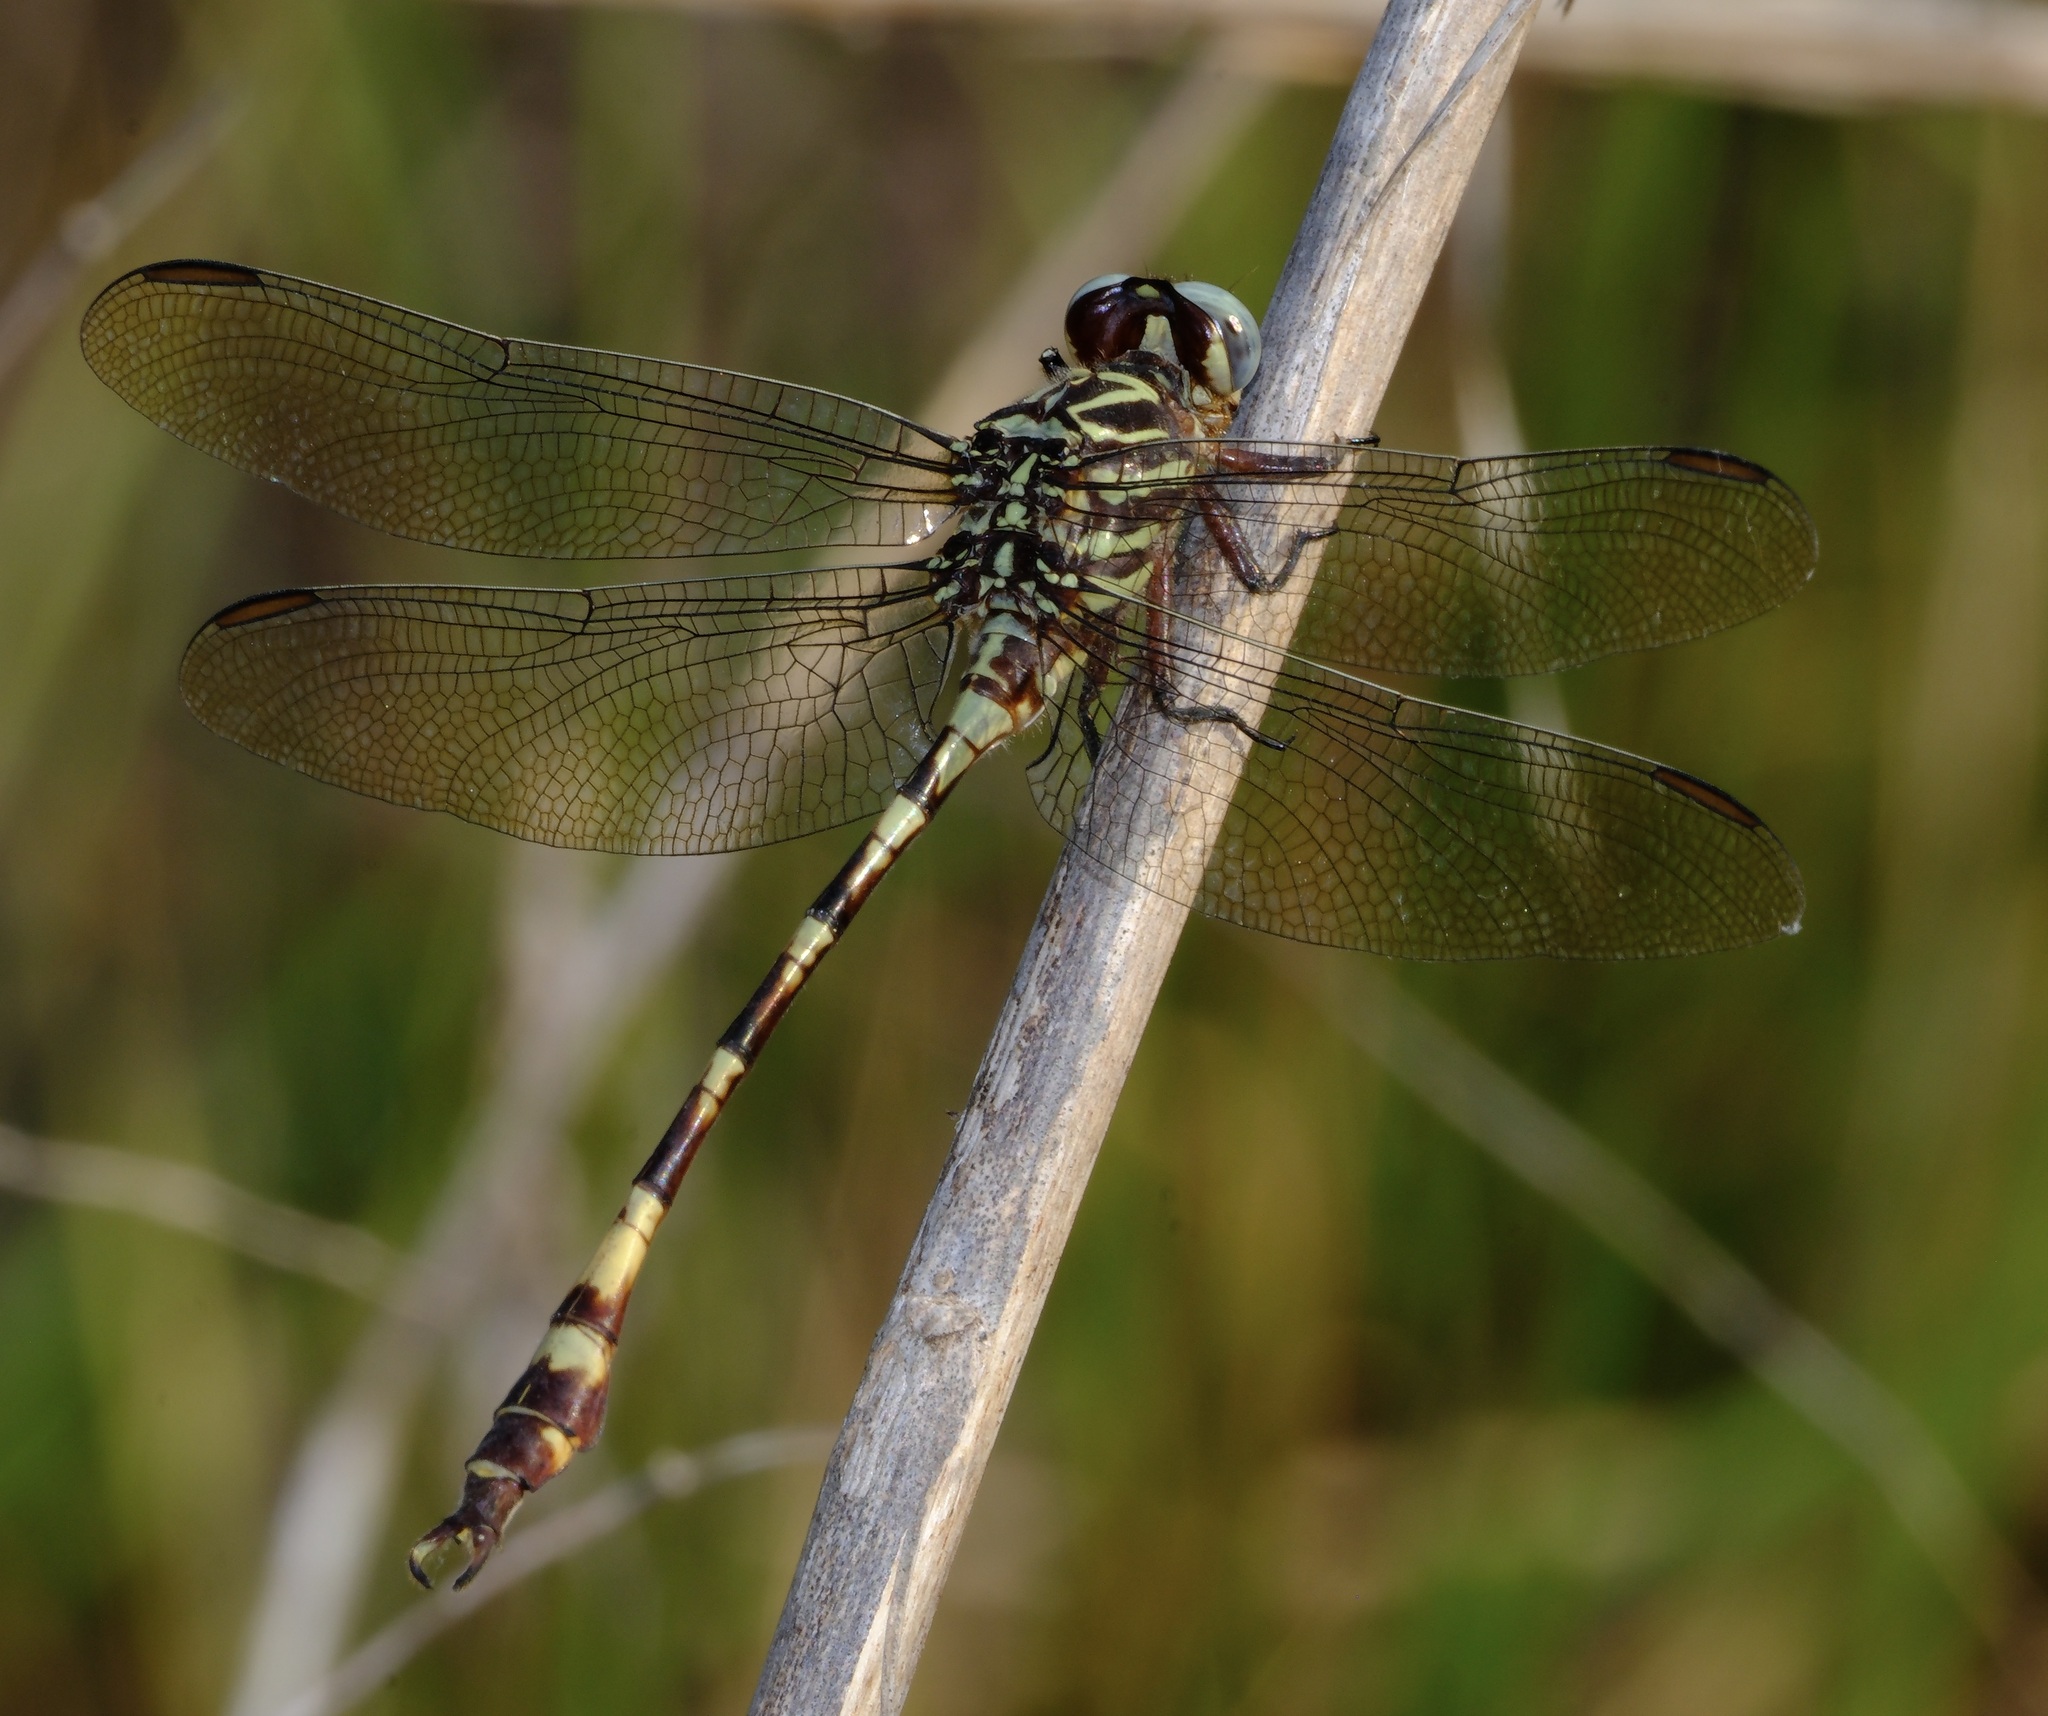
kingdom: Animalia
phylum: Arthropoda
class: Insecta
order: Odonata
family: Gomphidae
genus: Aphylla
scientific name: Aphylla angustifolia
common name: Broad-striped forceptail
